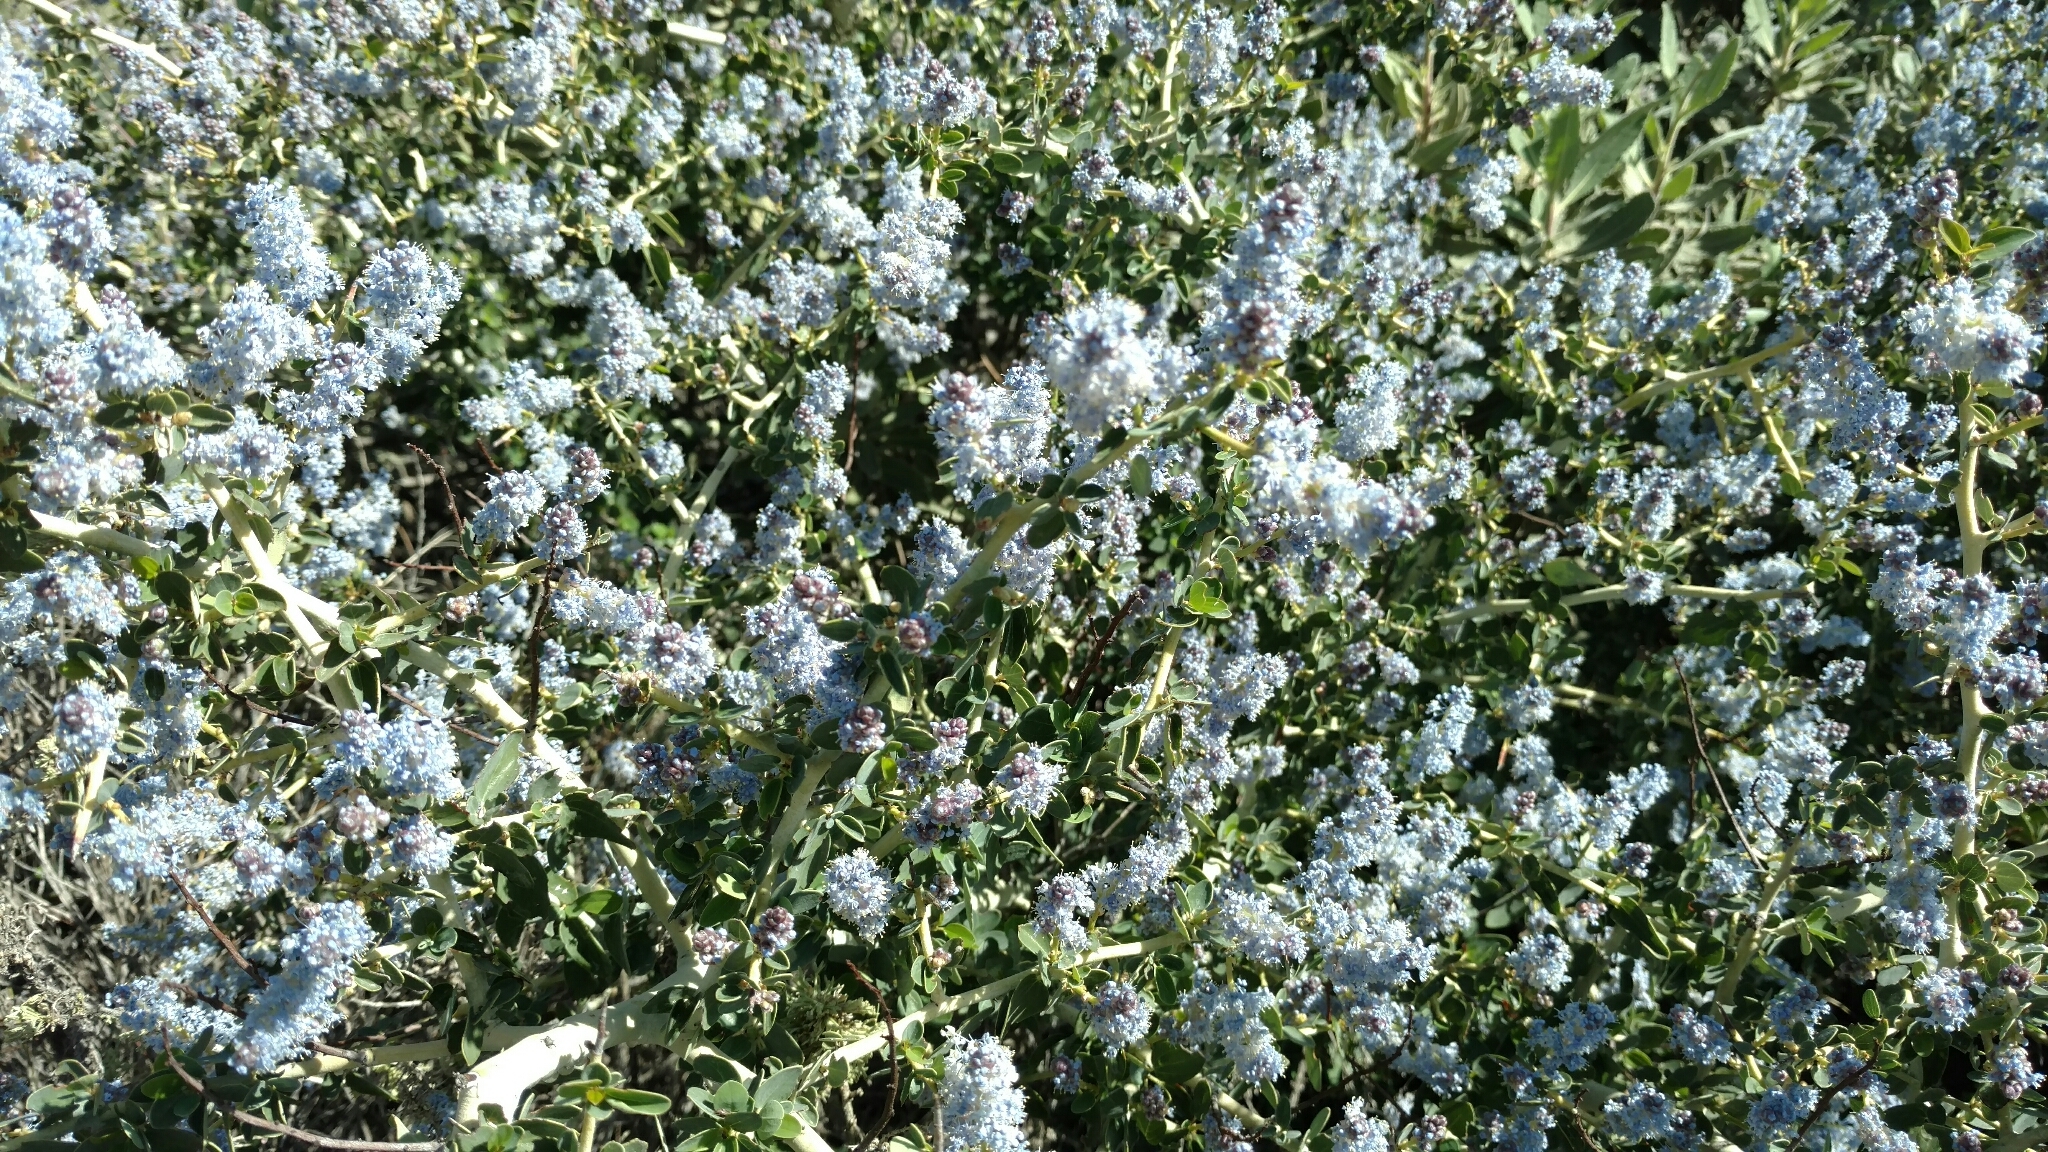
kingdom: Plantae
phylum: Tracheophyta
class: Magnoliopsida
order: Rosales
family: Rhamnaceae
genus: Ceanothus
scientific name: Ceanothus leucodermis
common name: Chaparral whitethorn
